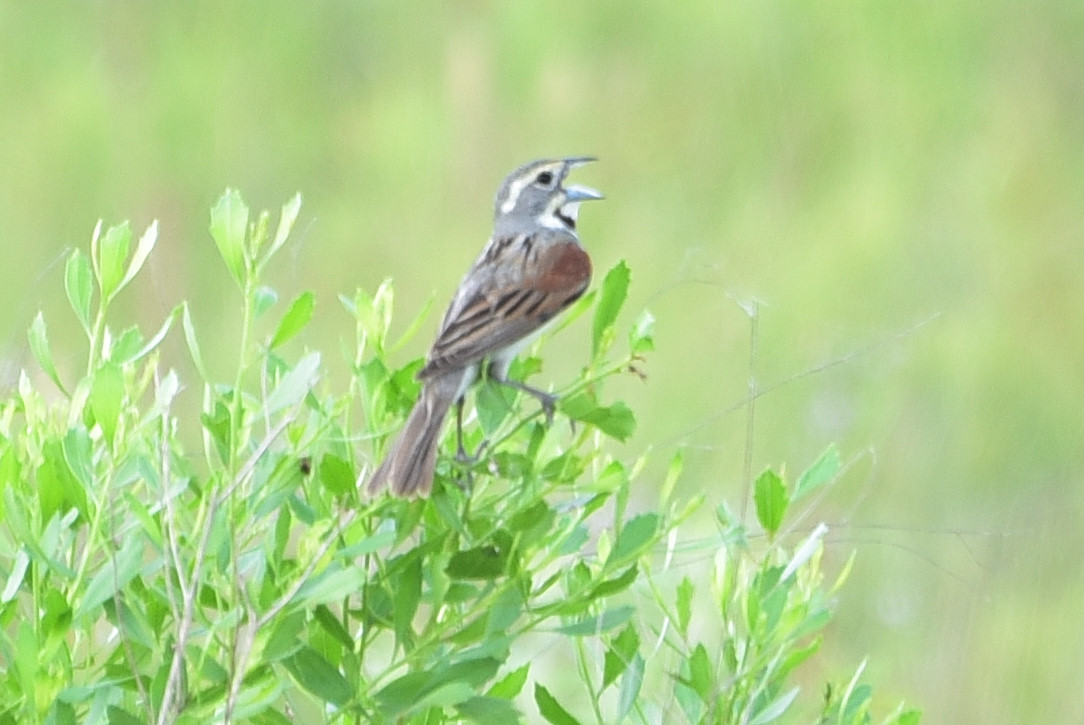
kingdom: Animalia
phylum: Chordata
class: Aves
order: Passeriformes
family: Cardinalidae
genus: Spiza
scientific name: Spiza americana
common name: Dickcissel
